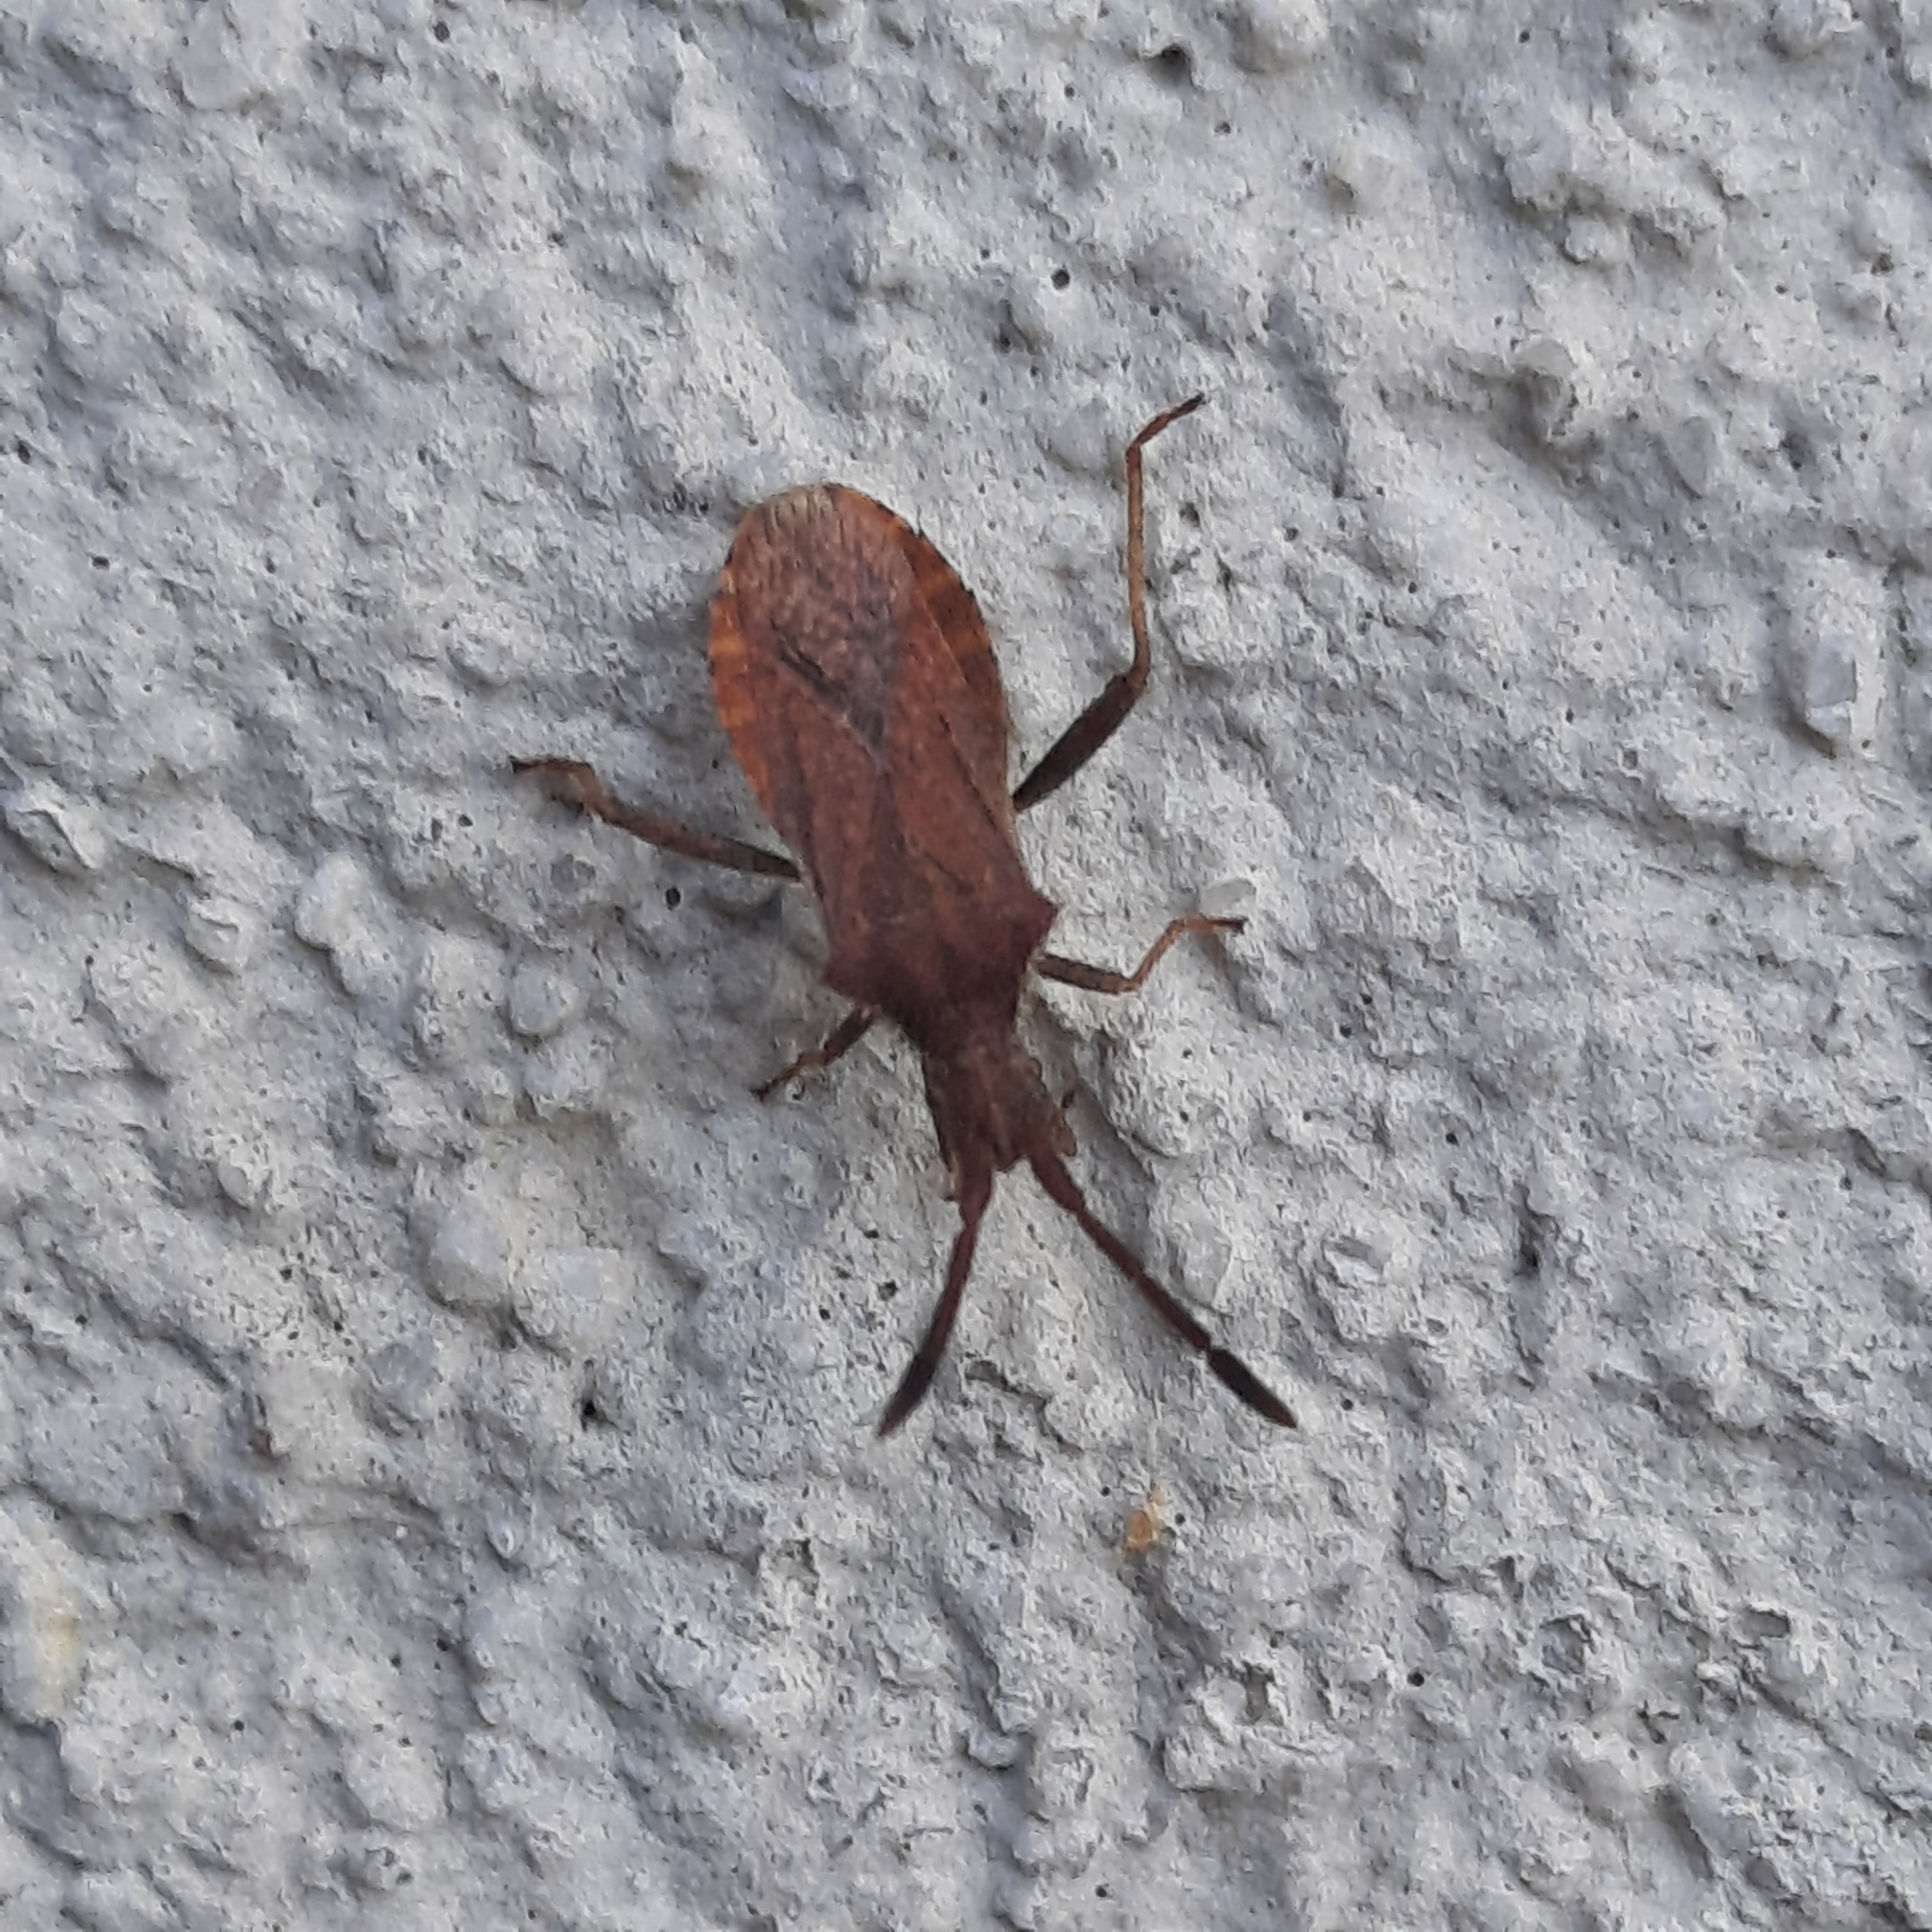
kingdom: Animalia
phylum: Arthropoda
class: Insecta
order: Hemiptera
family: Coreidae
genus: Coriomeris
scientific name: Coriomeris
